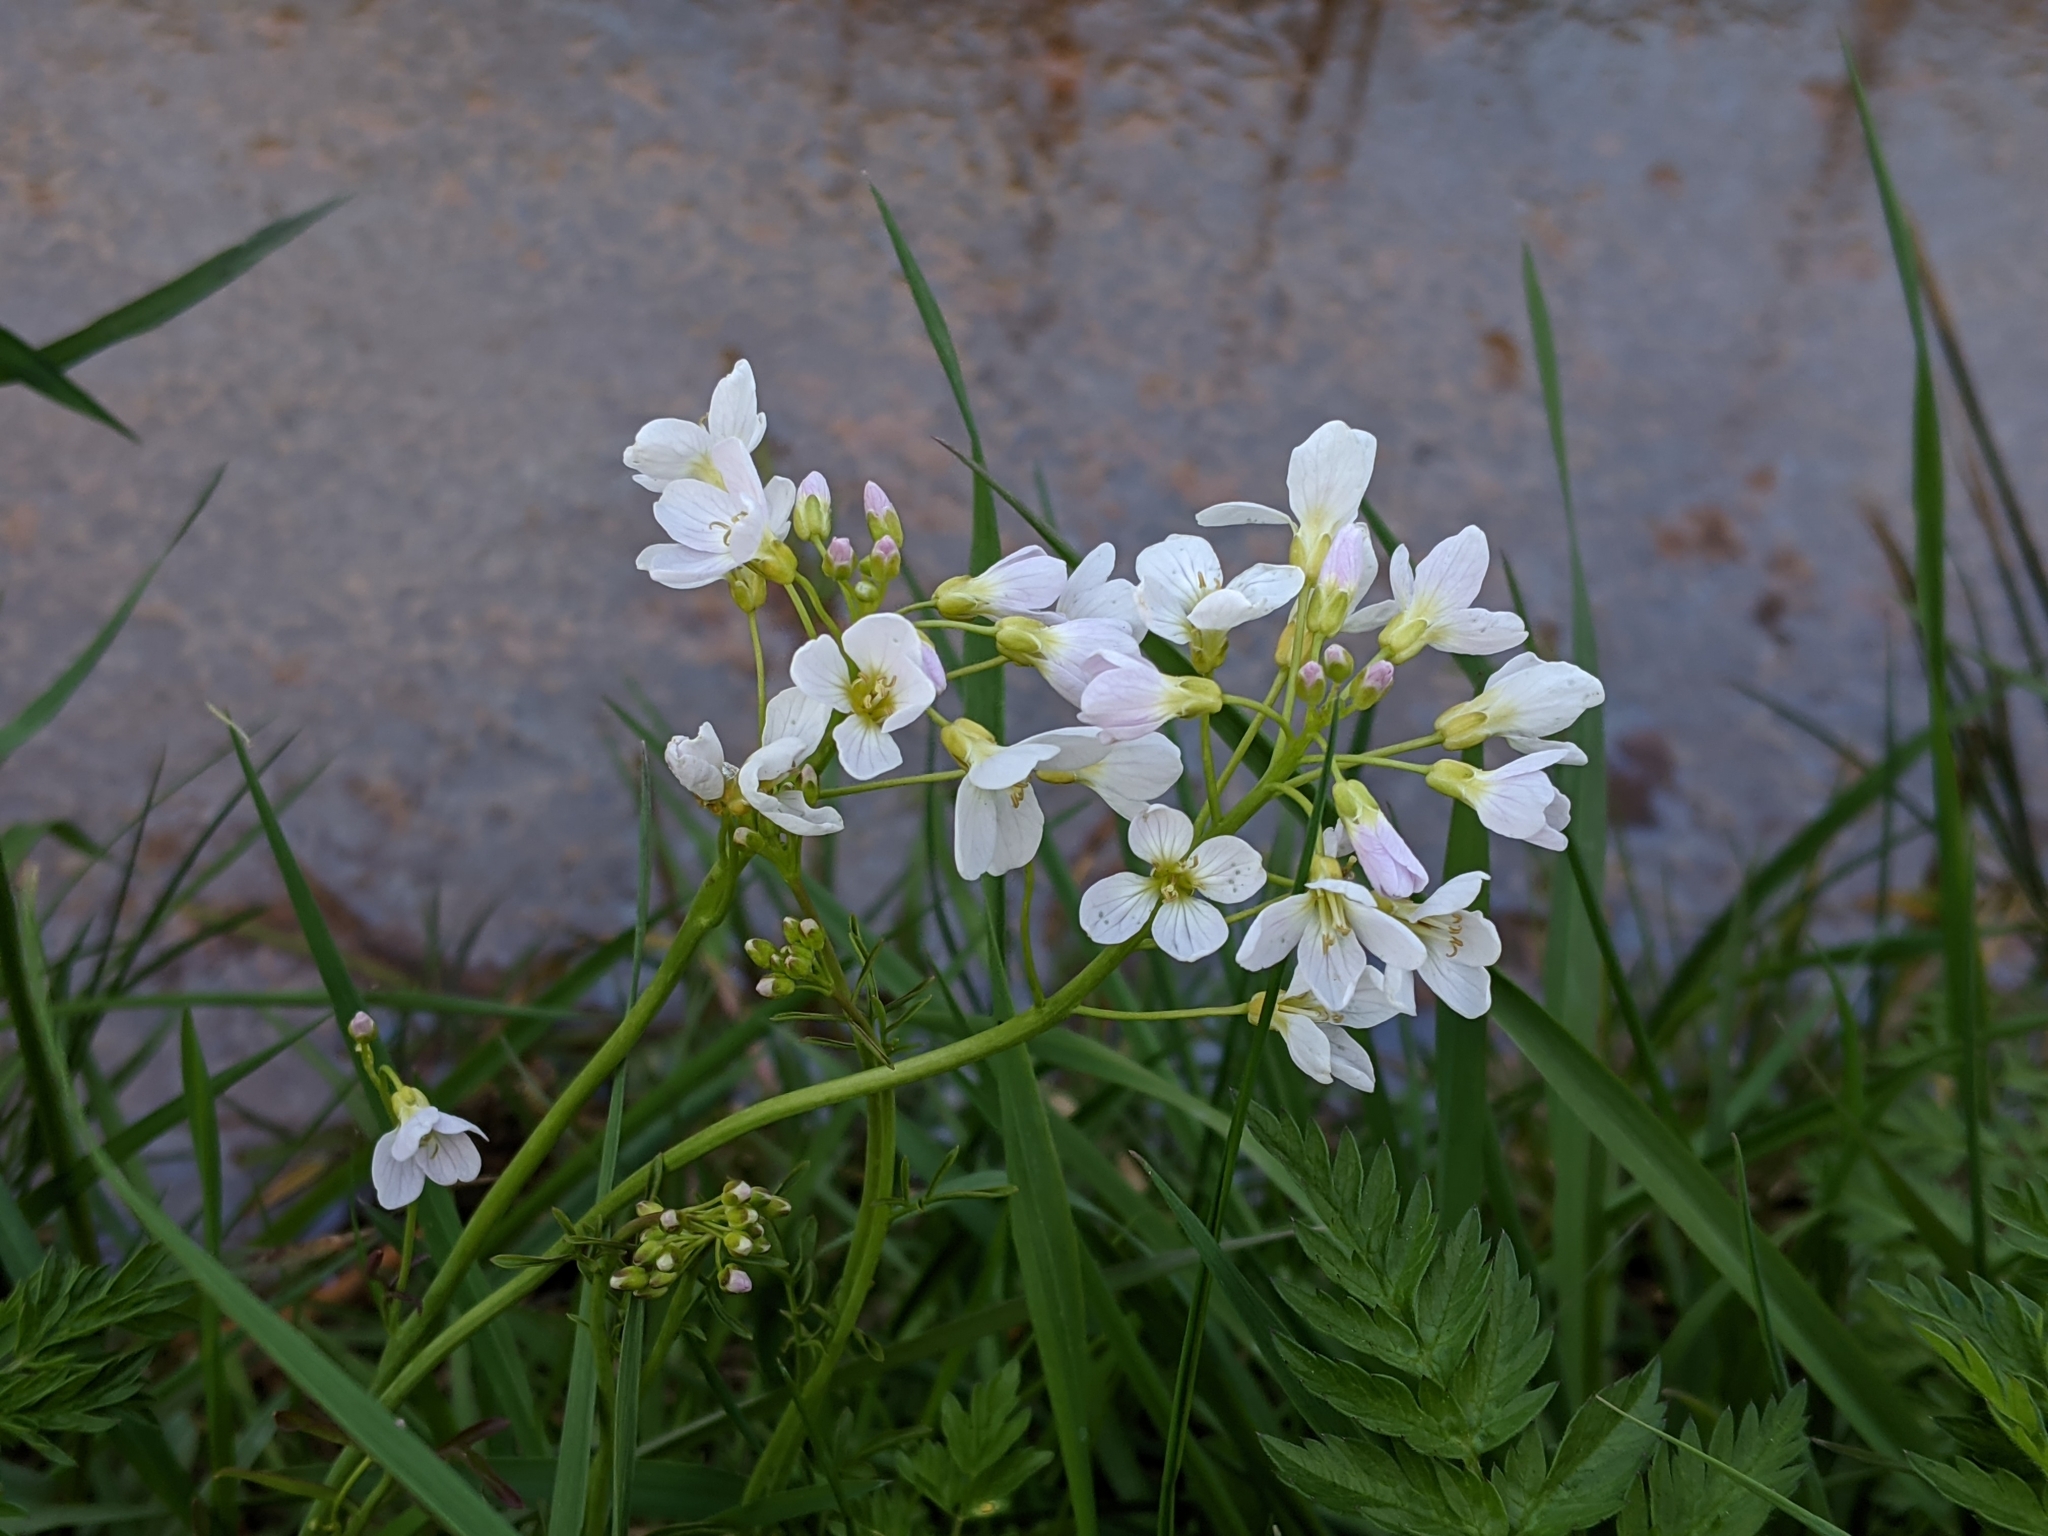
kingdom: Plantae
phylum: Tracheophyta
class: Magnoliopsida
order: Brassicales
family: Brassicaceae
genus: Cardamine
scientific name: Cardamine pratensis
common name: Cuckoo flower
